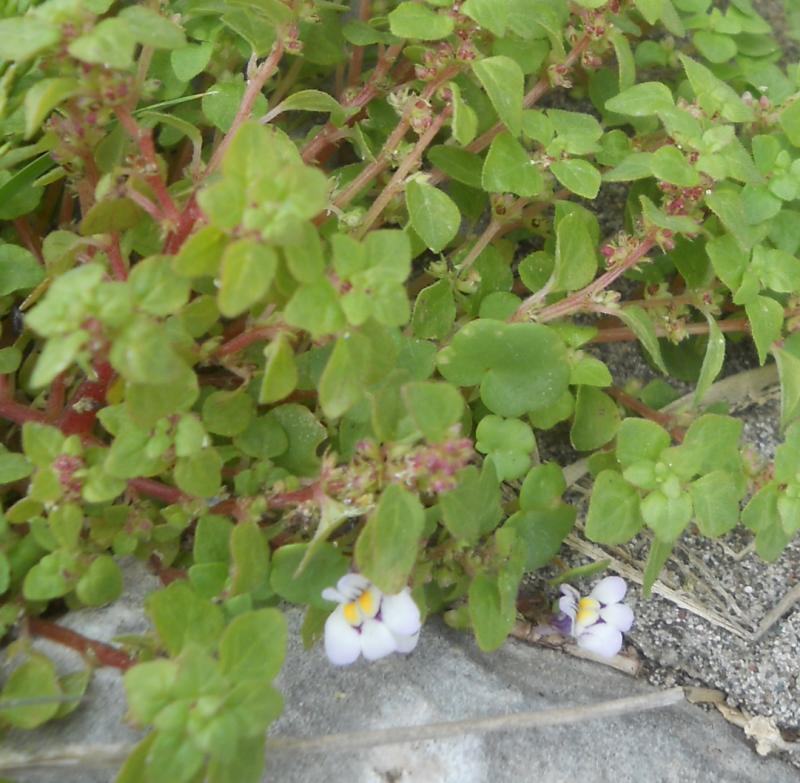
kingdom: Plantae
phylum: Tracheophyta
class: Magnoliopsida
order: Lamiales
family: Plantaginaceae
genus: Cymbalaria
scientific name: Cymbalaria longipes
